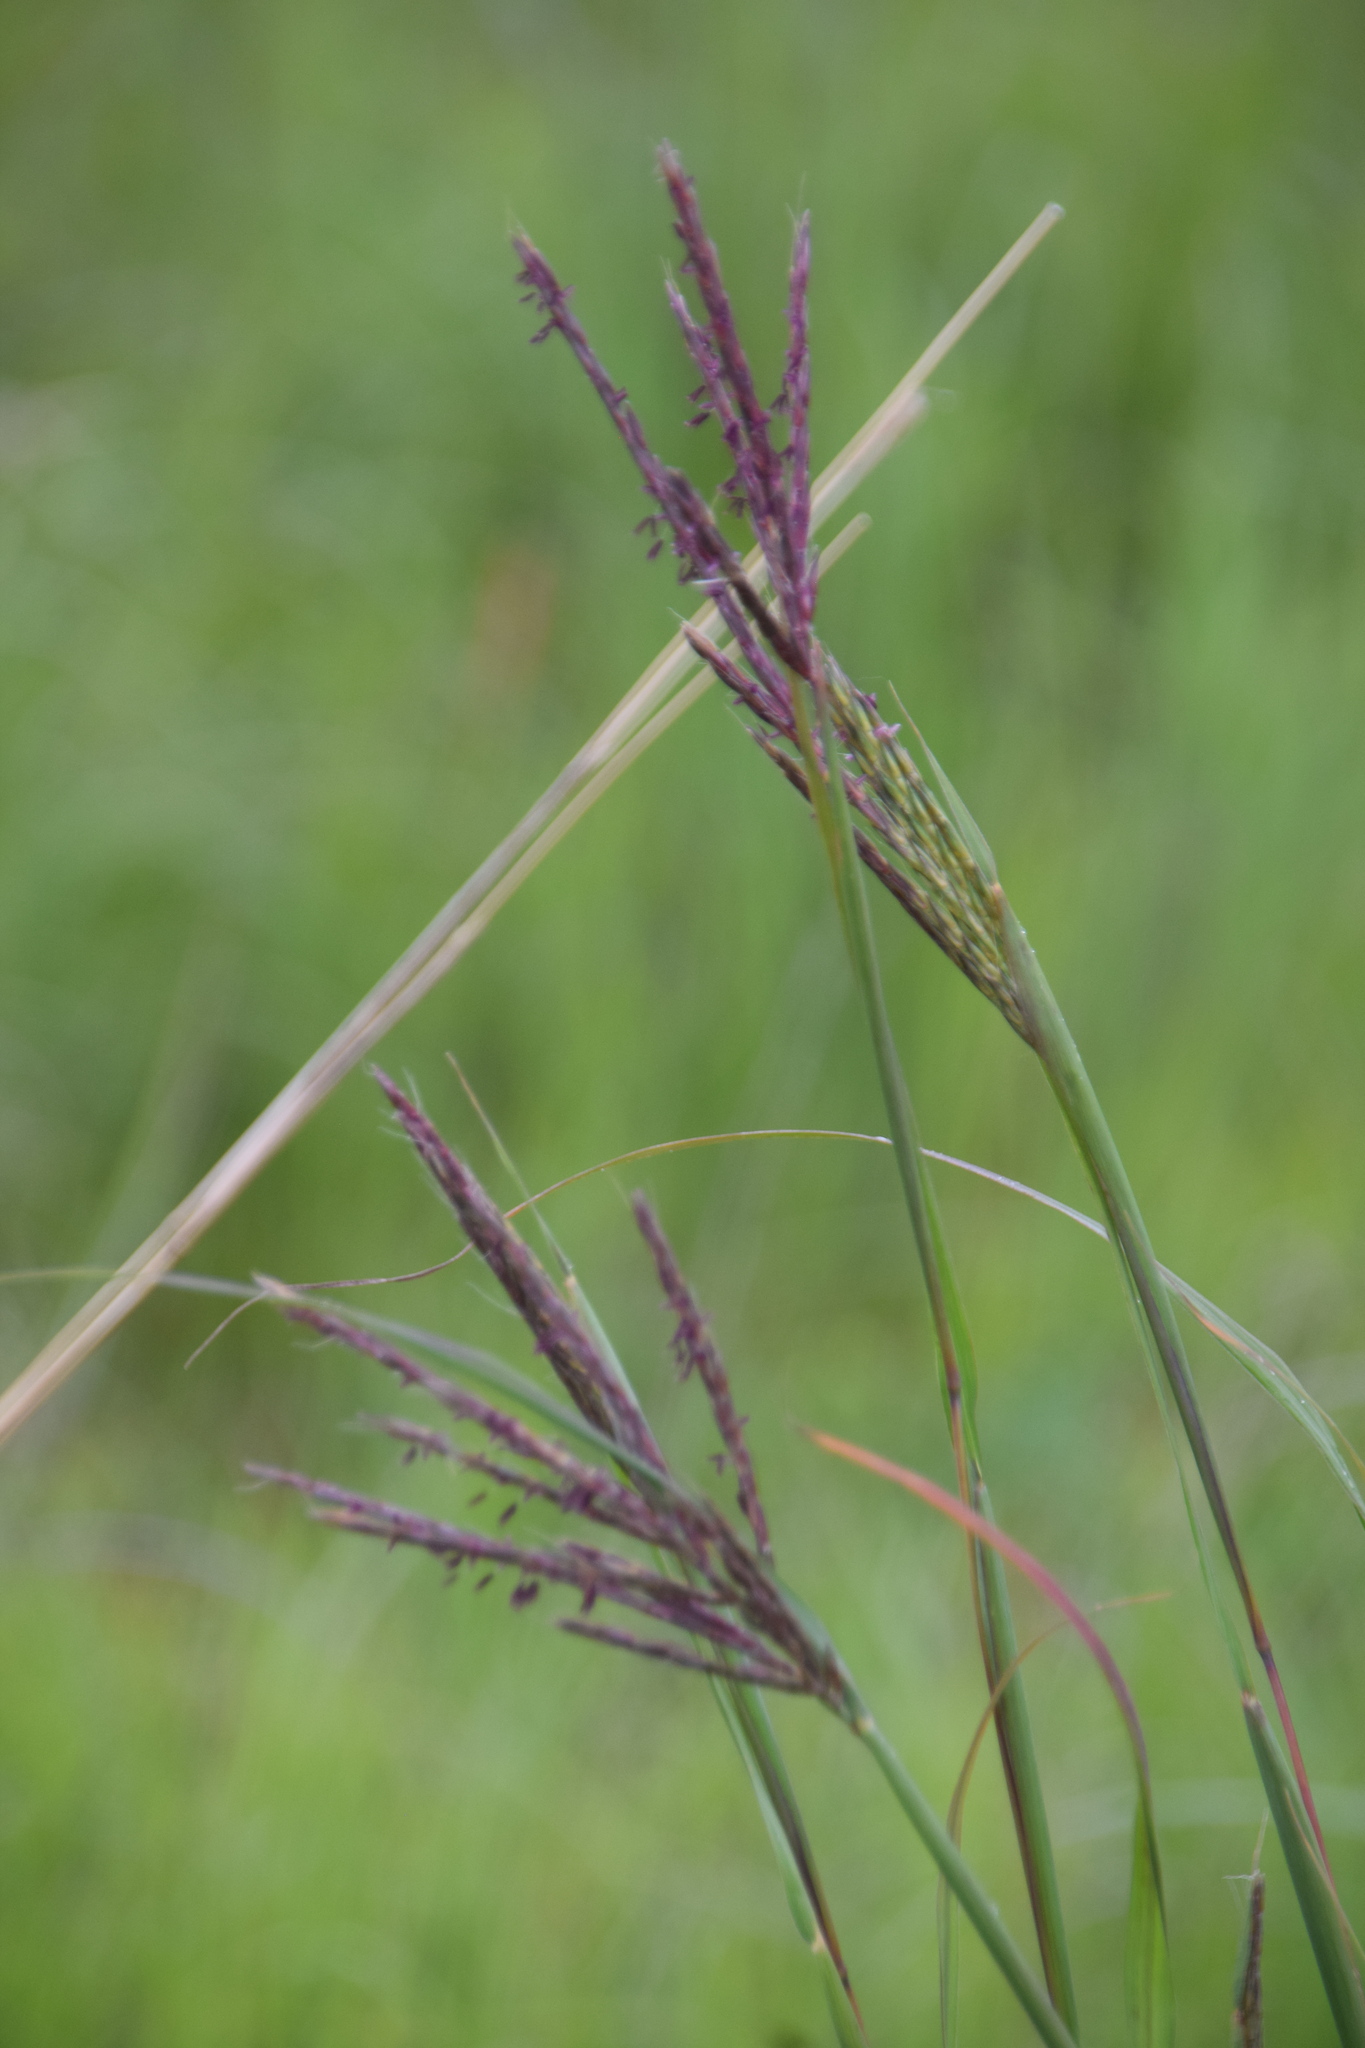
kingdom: Plantae
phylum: Tracheophyta
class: Liliopsida
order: Poales
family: Poaceae
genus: Andropogon
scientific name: Andropogon gerardi
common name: Big bluestem
